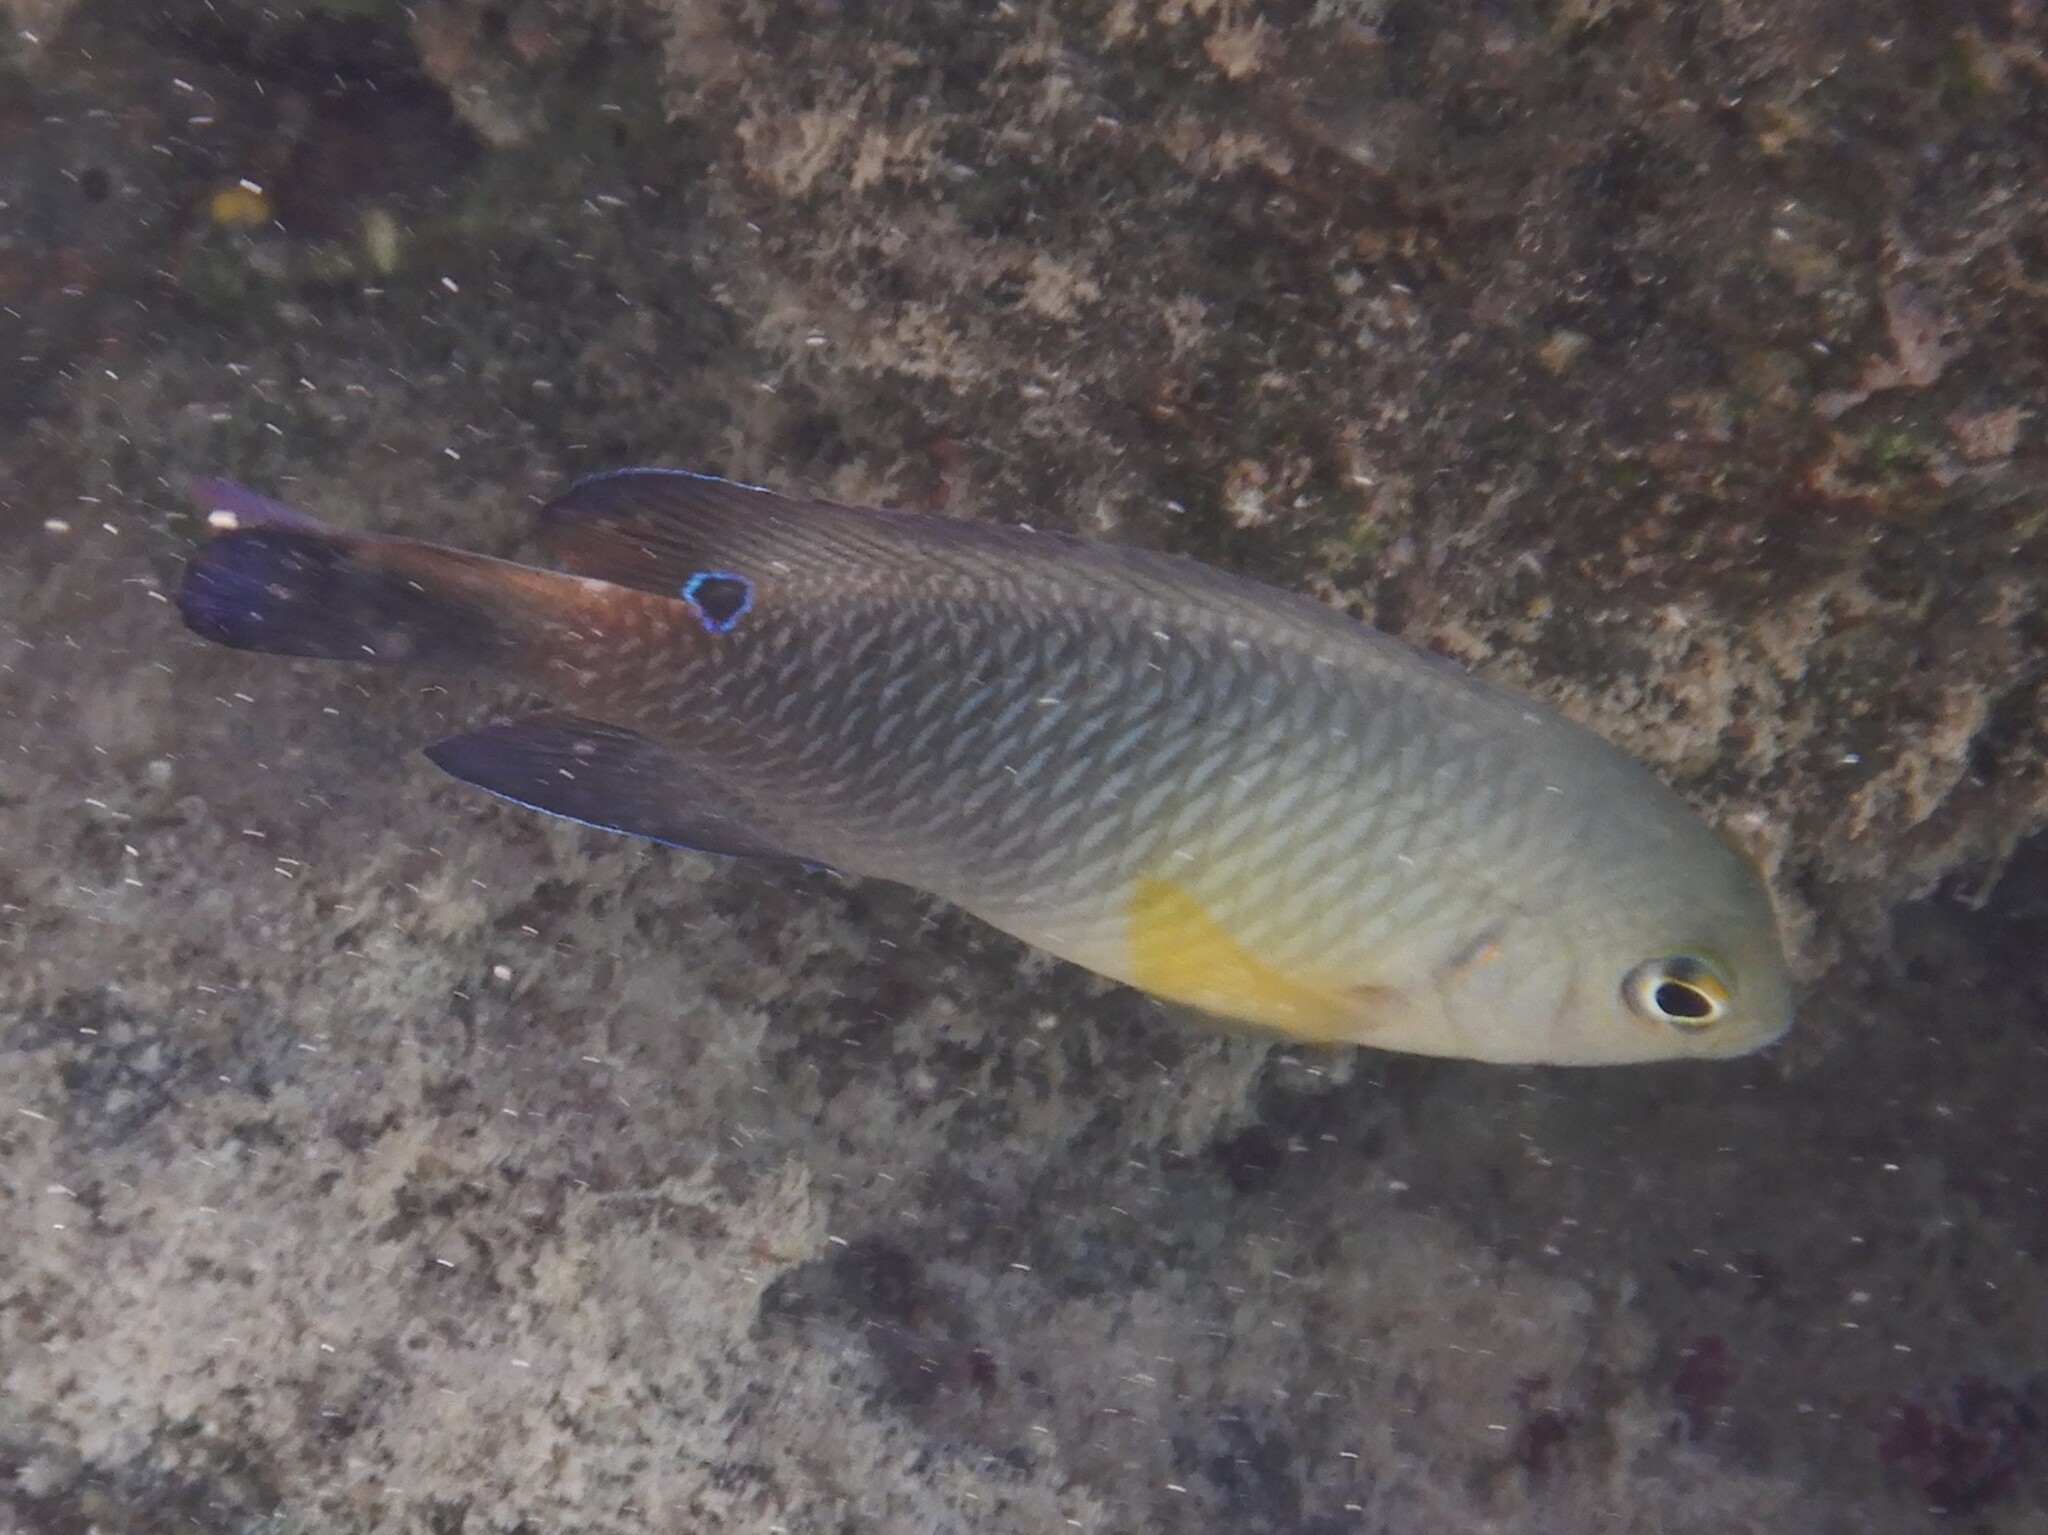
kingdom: Animalia
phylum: Chordata
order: Perciformes
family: Pomacentridae
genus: Chrysiptera
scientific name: Chrysiptera unimaculata
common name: Onespot demoiselle
